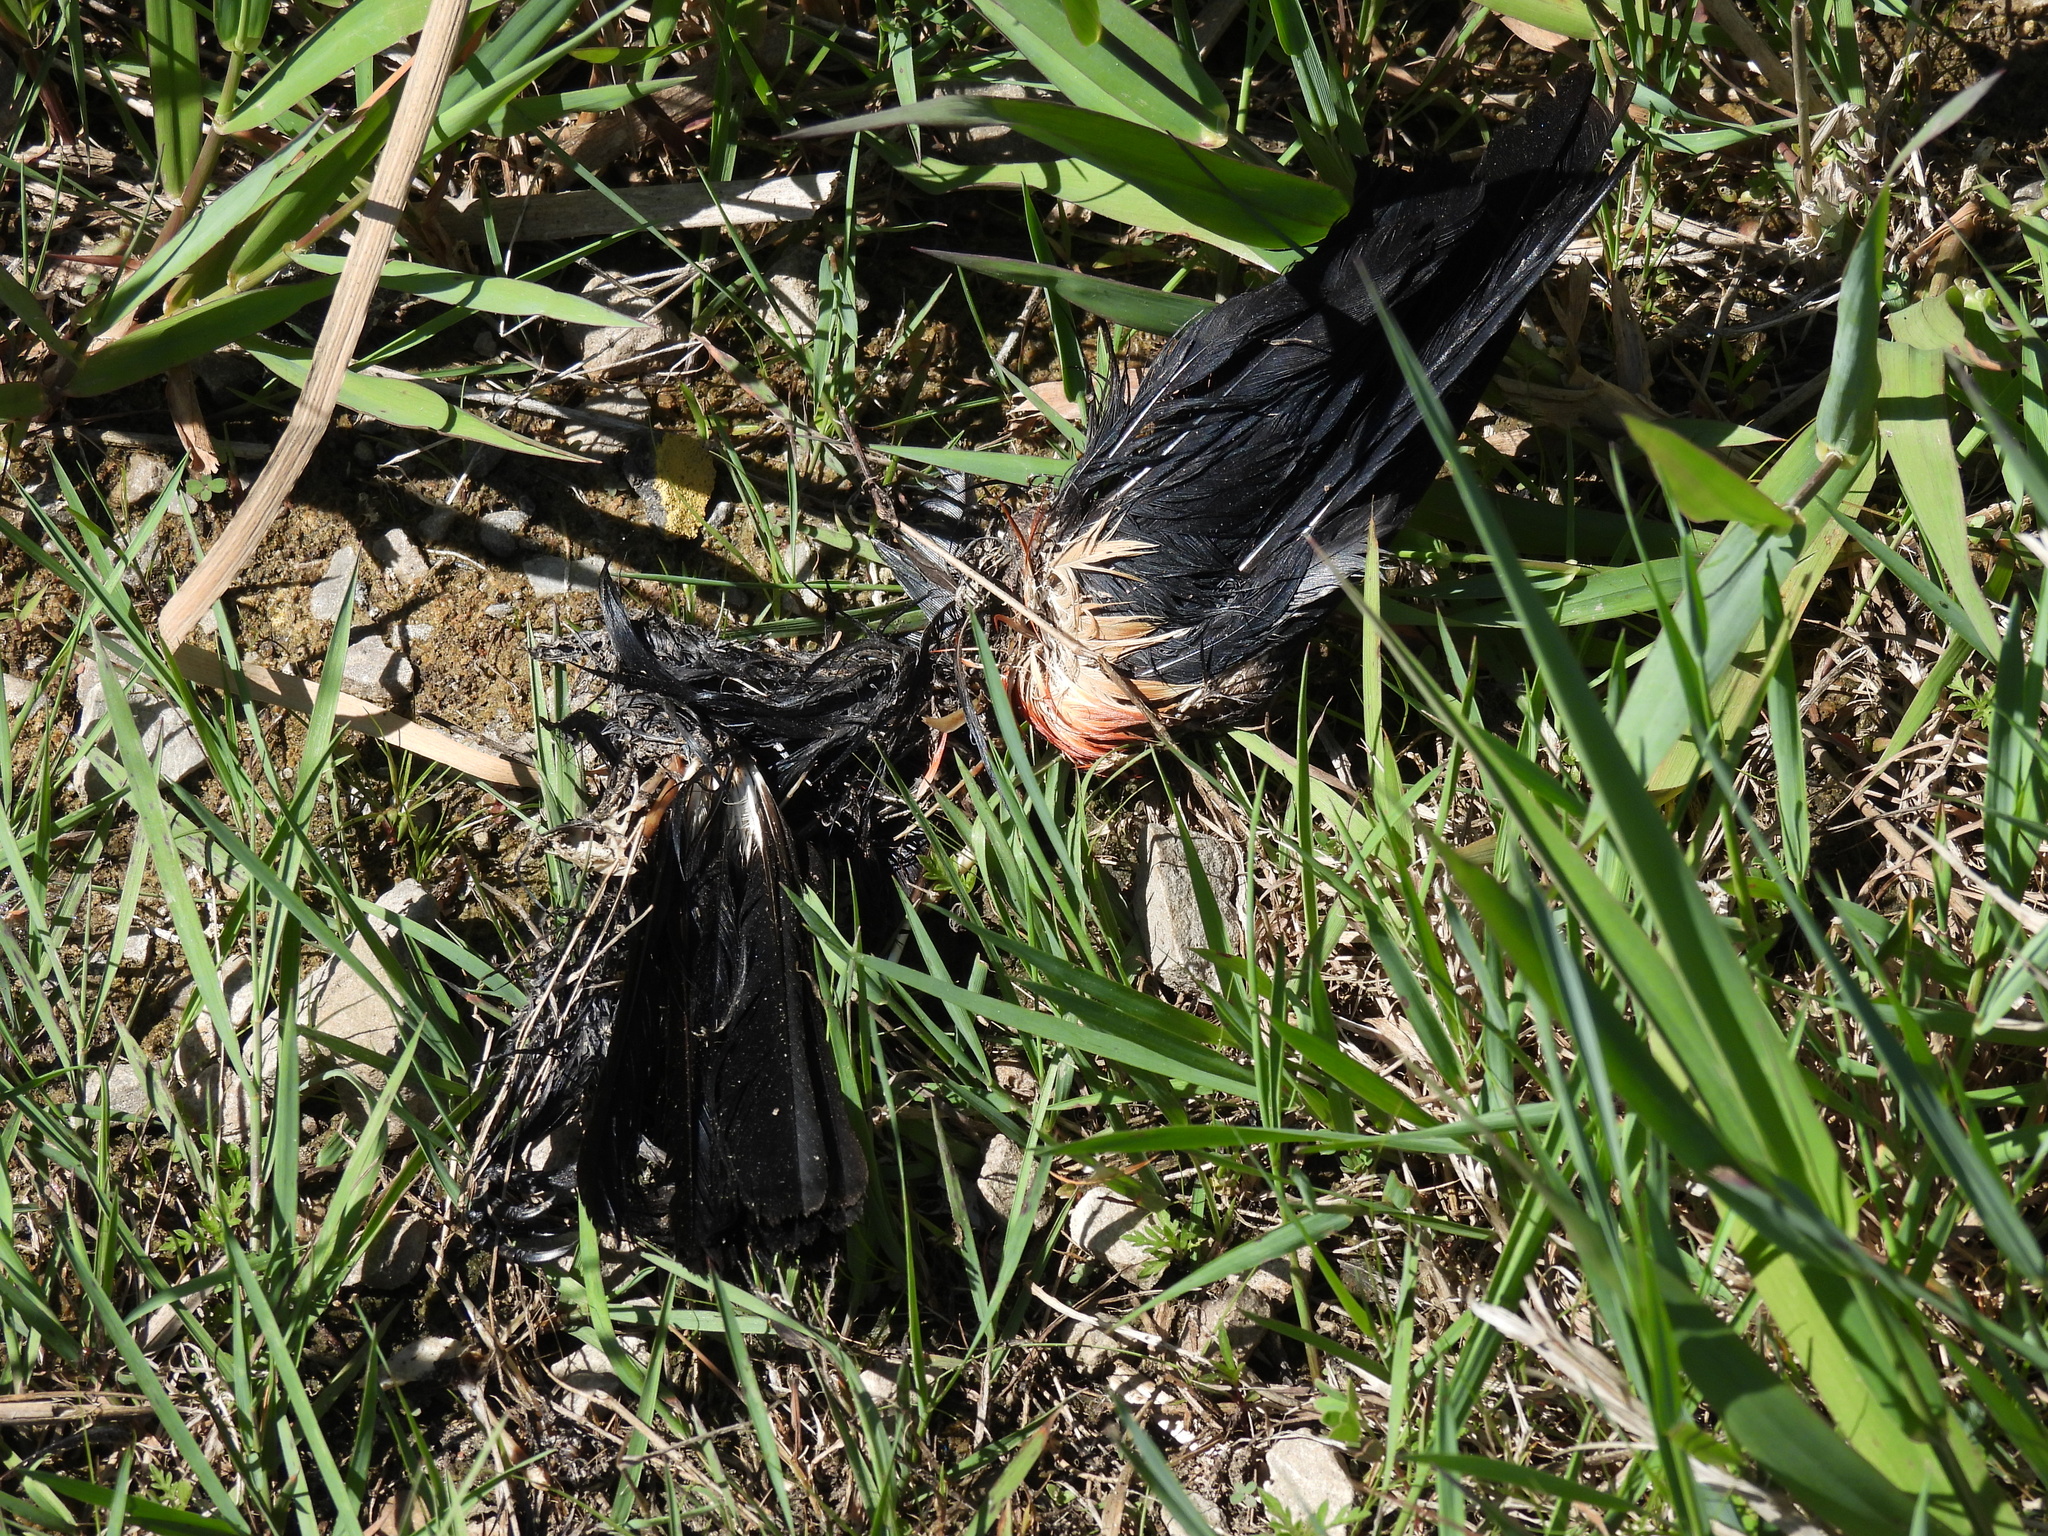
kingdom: Animalia
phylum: Chordata
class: Aves
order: Passeriformes
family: Icteridae
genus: Agelaius
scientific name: Agelaius phoeniceus
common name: Red-winged blackbird
